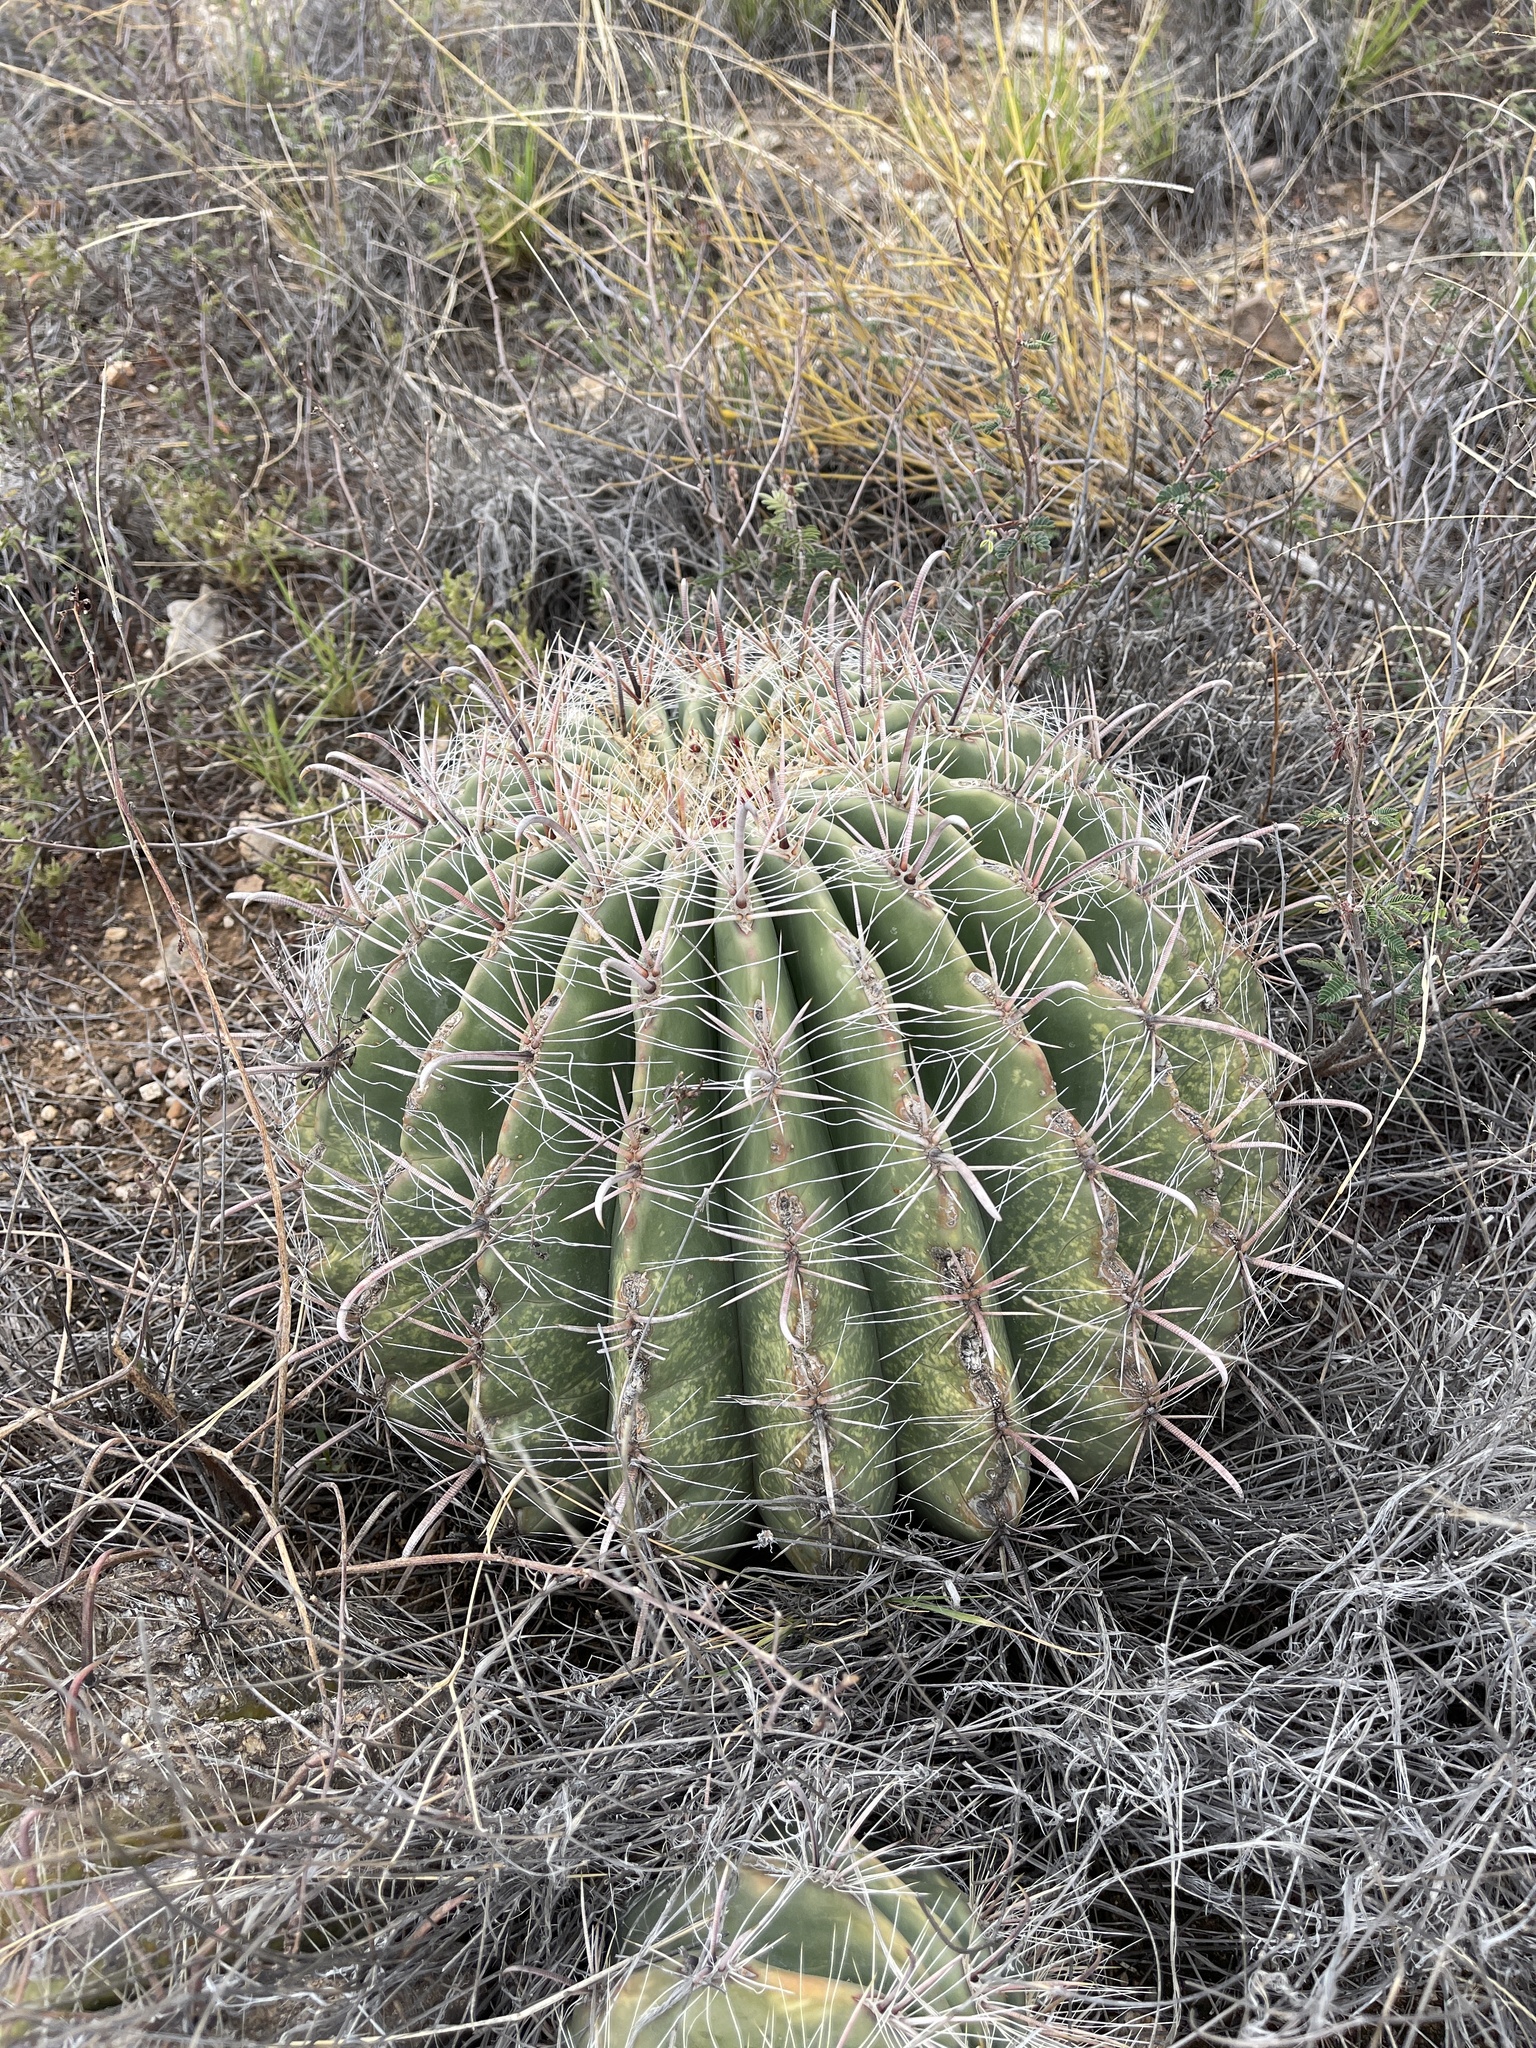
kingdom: Plantae
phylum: Tracheophyta
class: Magnoliopsida
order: Caryophyllales
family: Cactaceae
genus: Ferocactus
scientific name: Ferocactus wislizeni
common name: Candy barrel cactus
